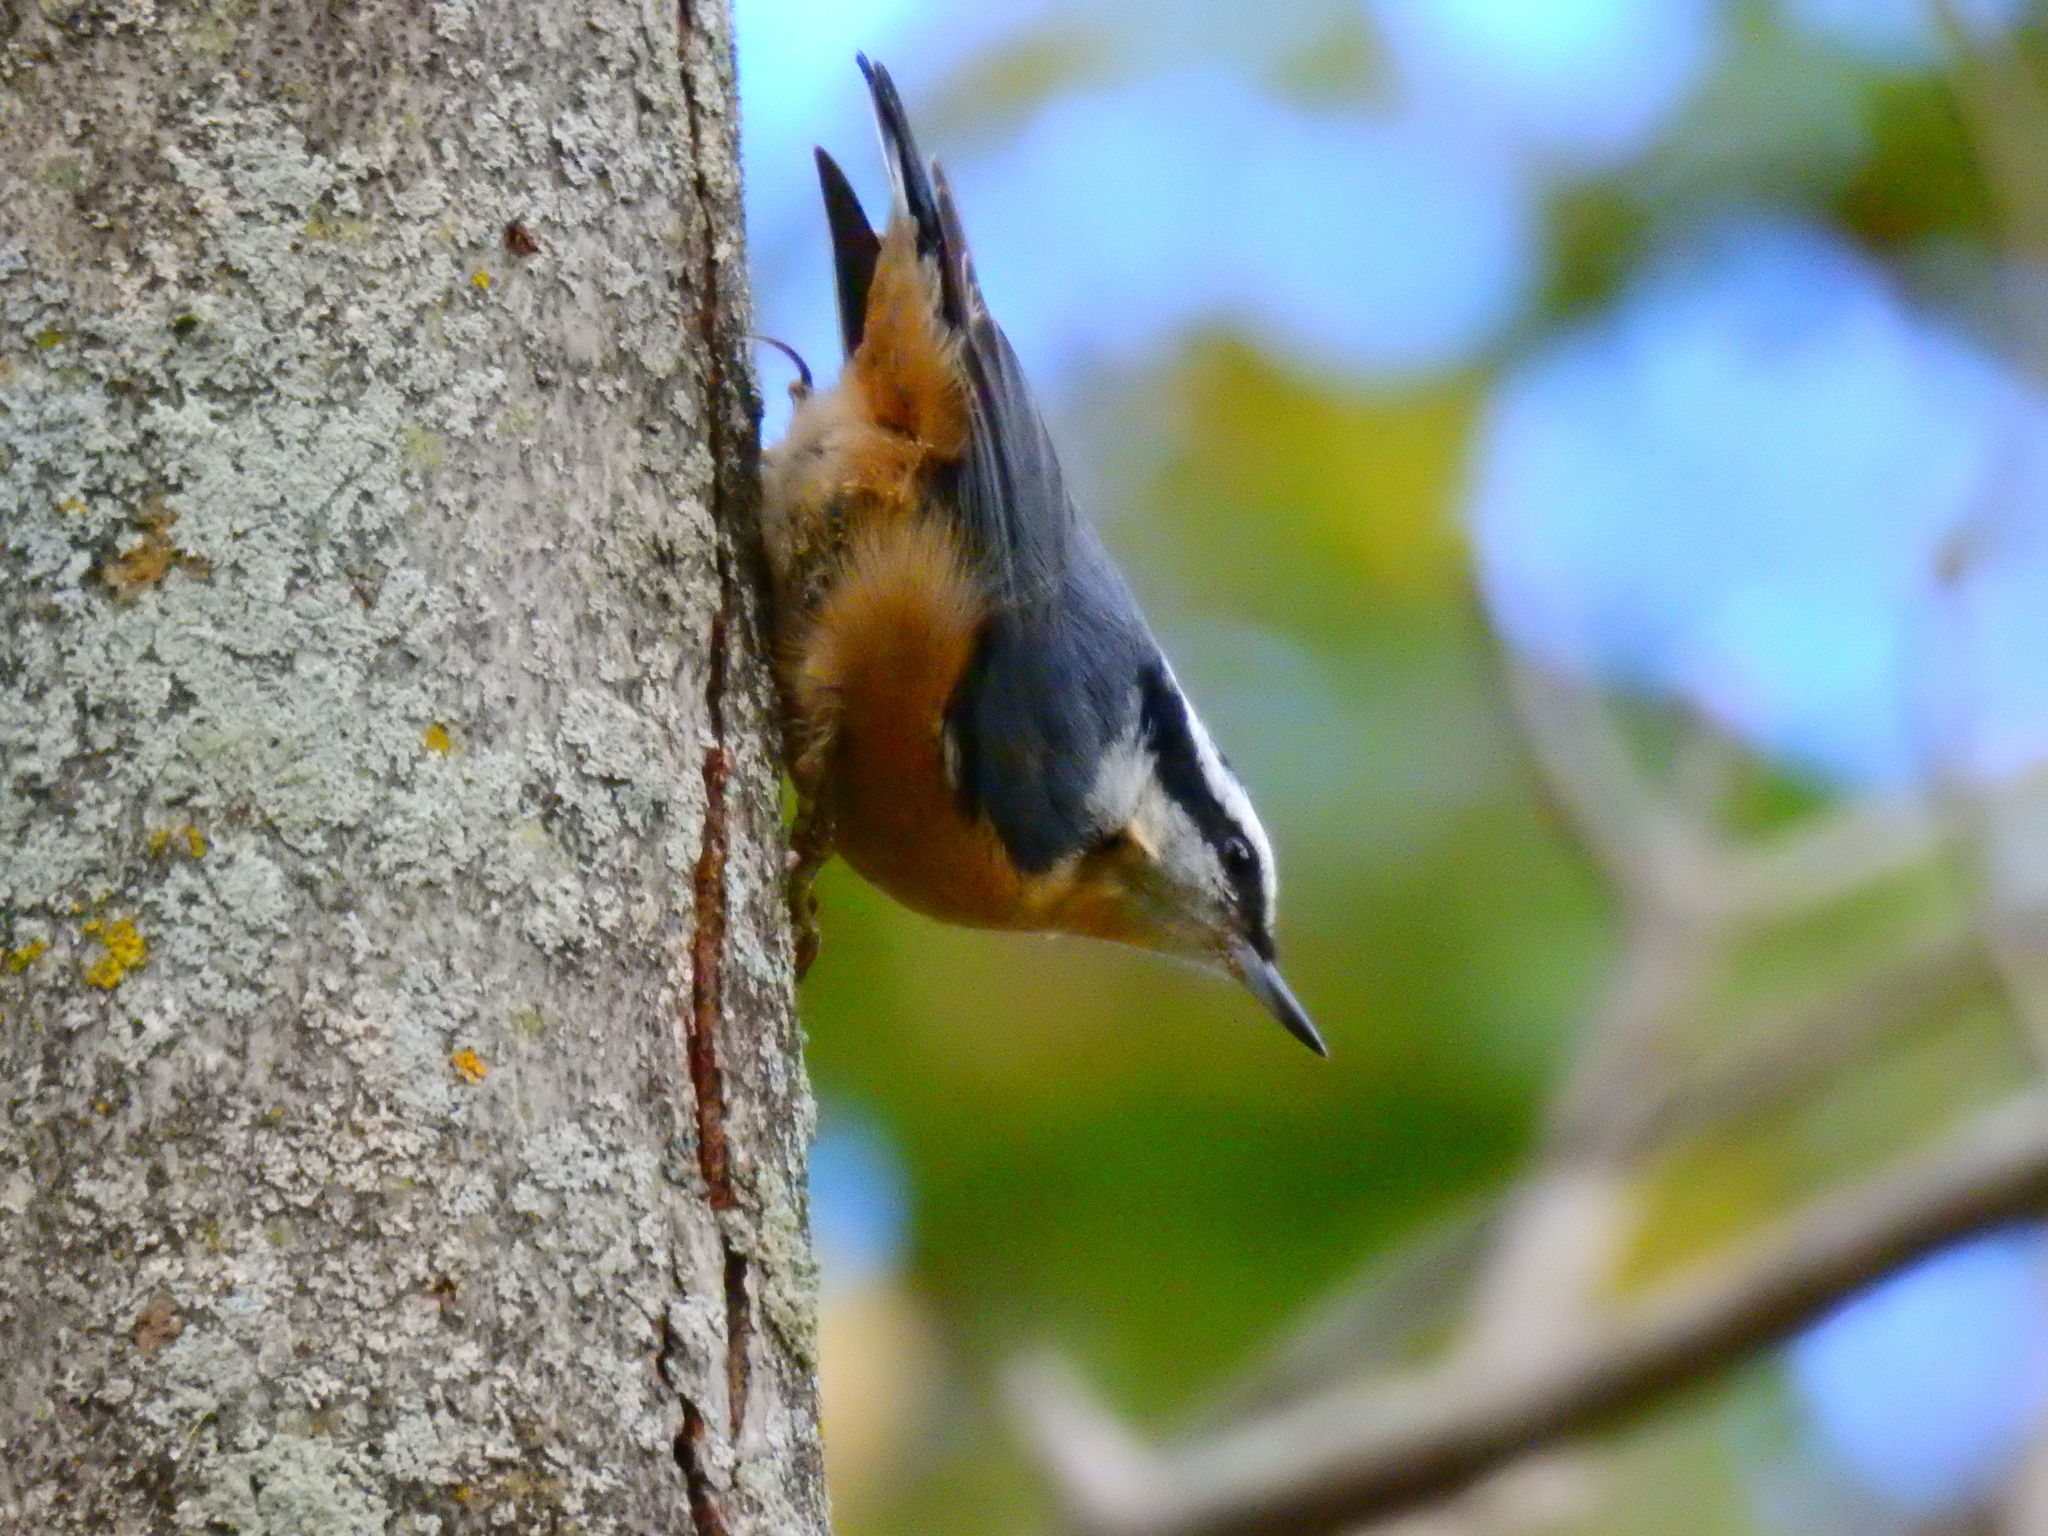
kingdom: Animalia
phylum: Chordata
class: Aves
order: Passeriformes
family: Sittidae
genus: Sitta
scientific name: Sitta canadensis
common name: Red-breasted nuthatch
